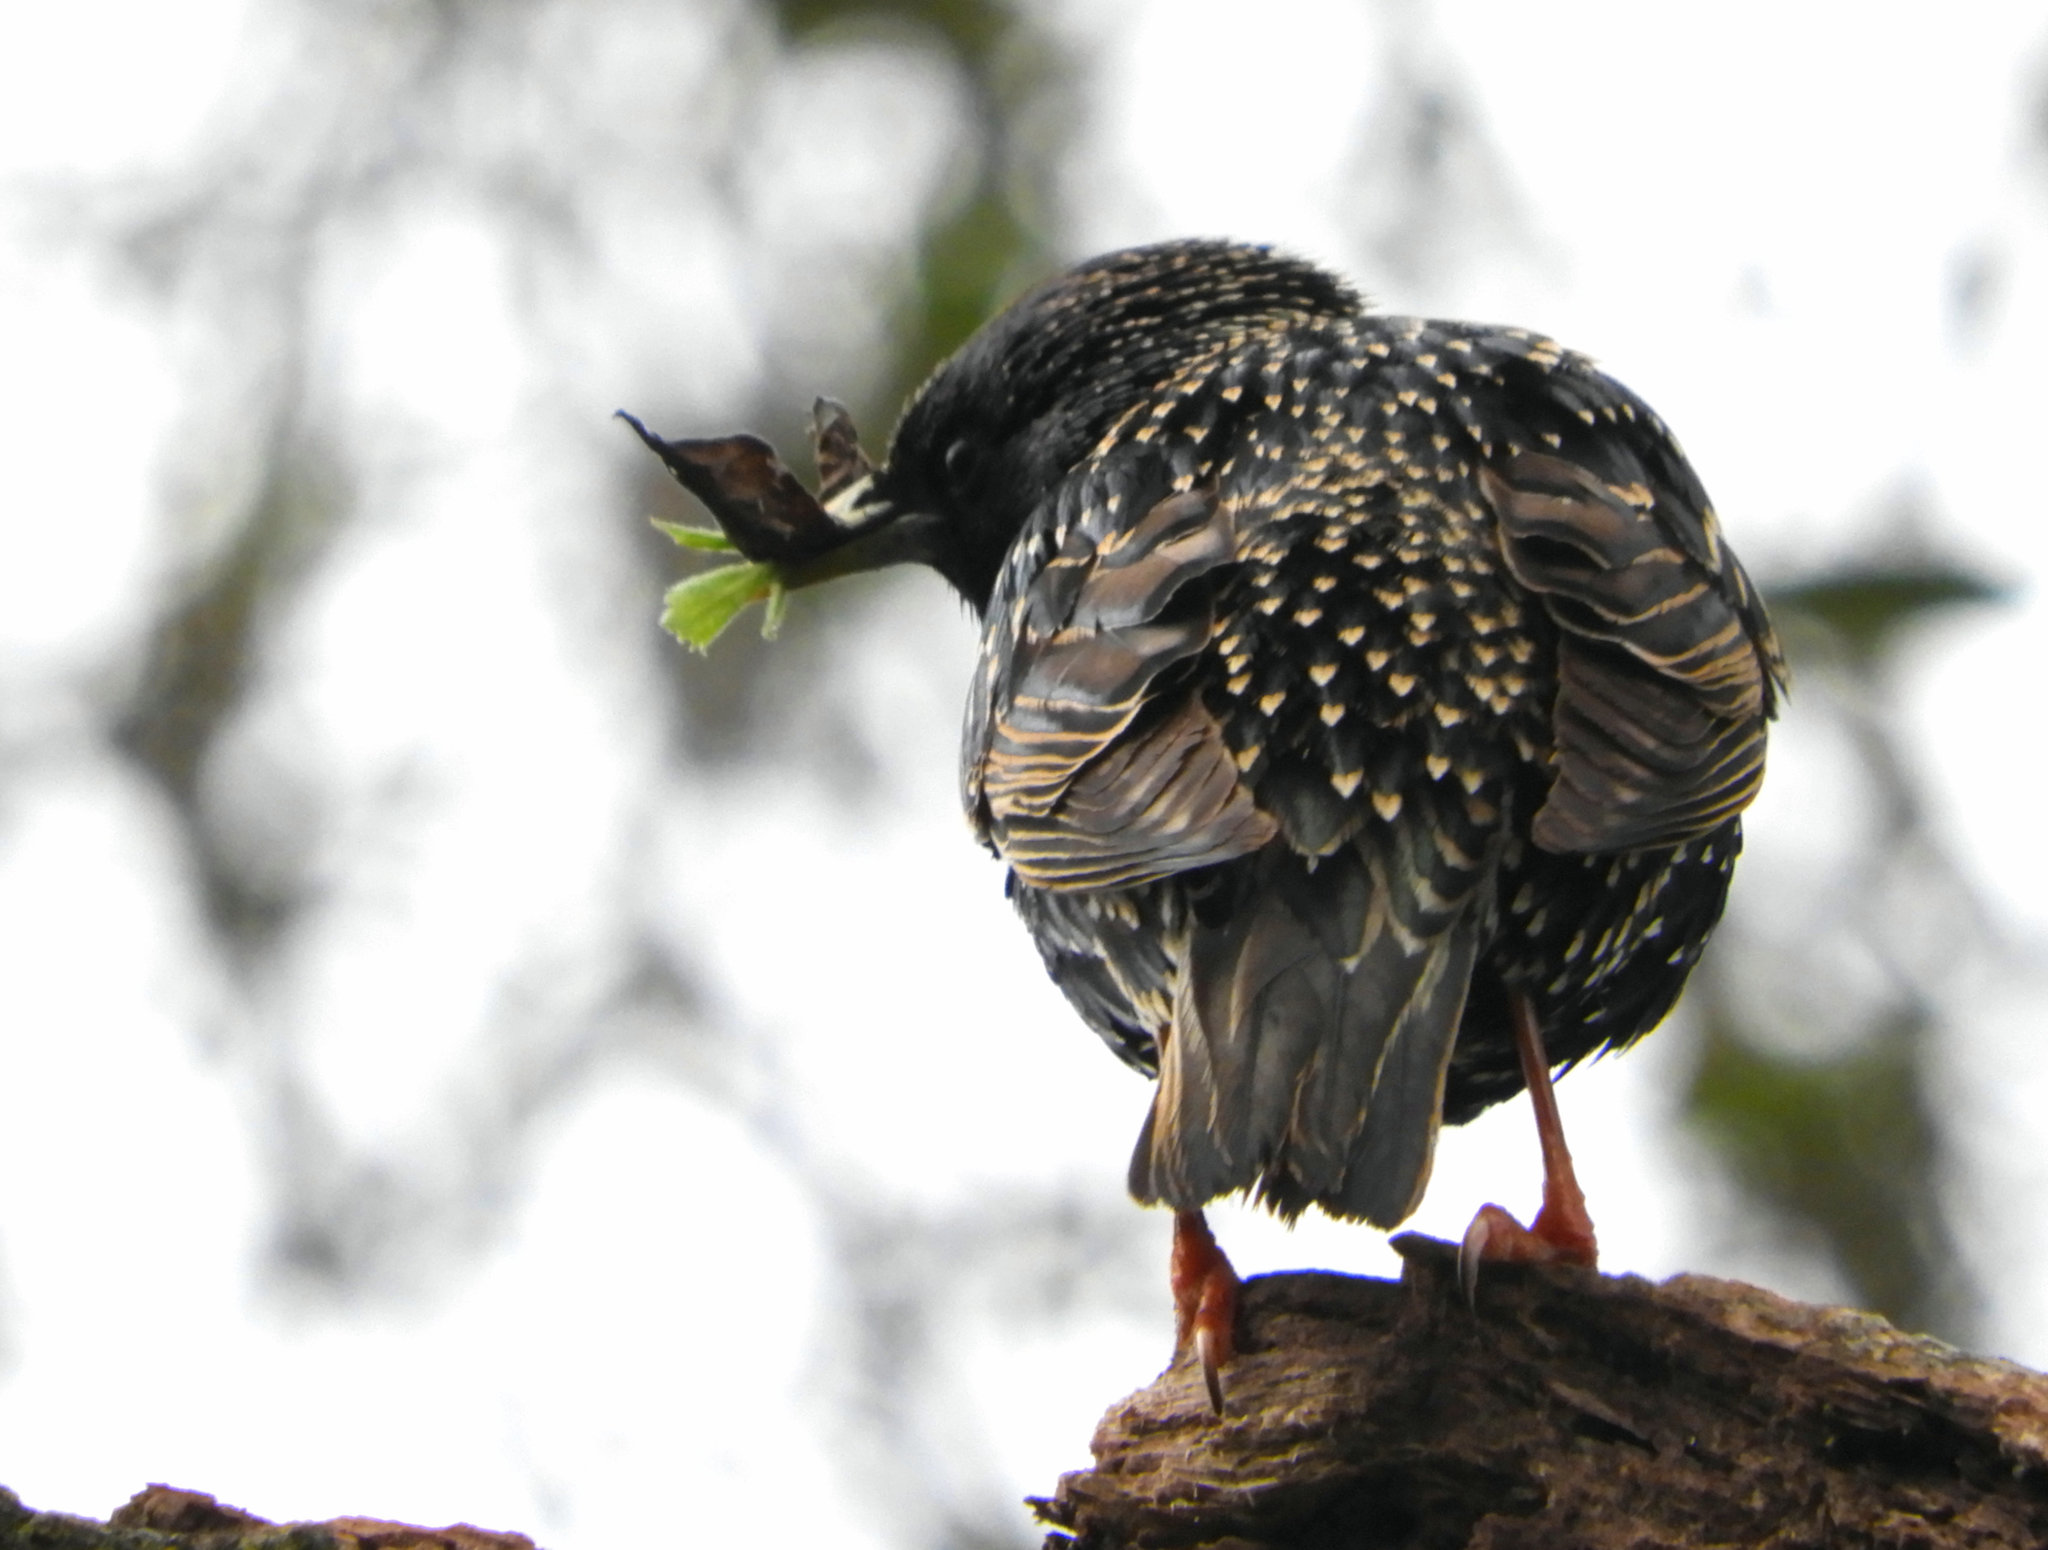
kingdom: Animalia
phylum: Chordata
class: Aves
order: Passeriformes
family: Sturnidae
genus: Sturnus
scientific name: Sturnus vulgaris
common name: Common starling
